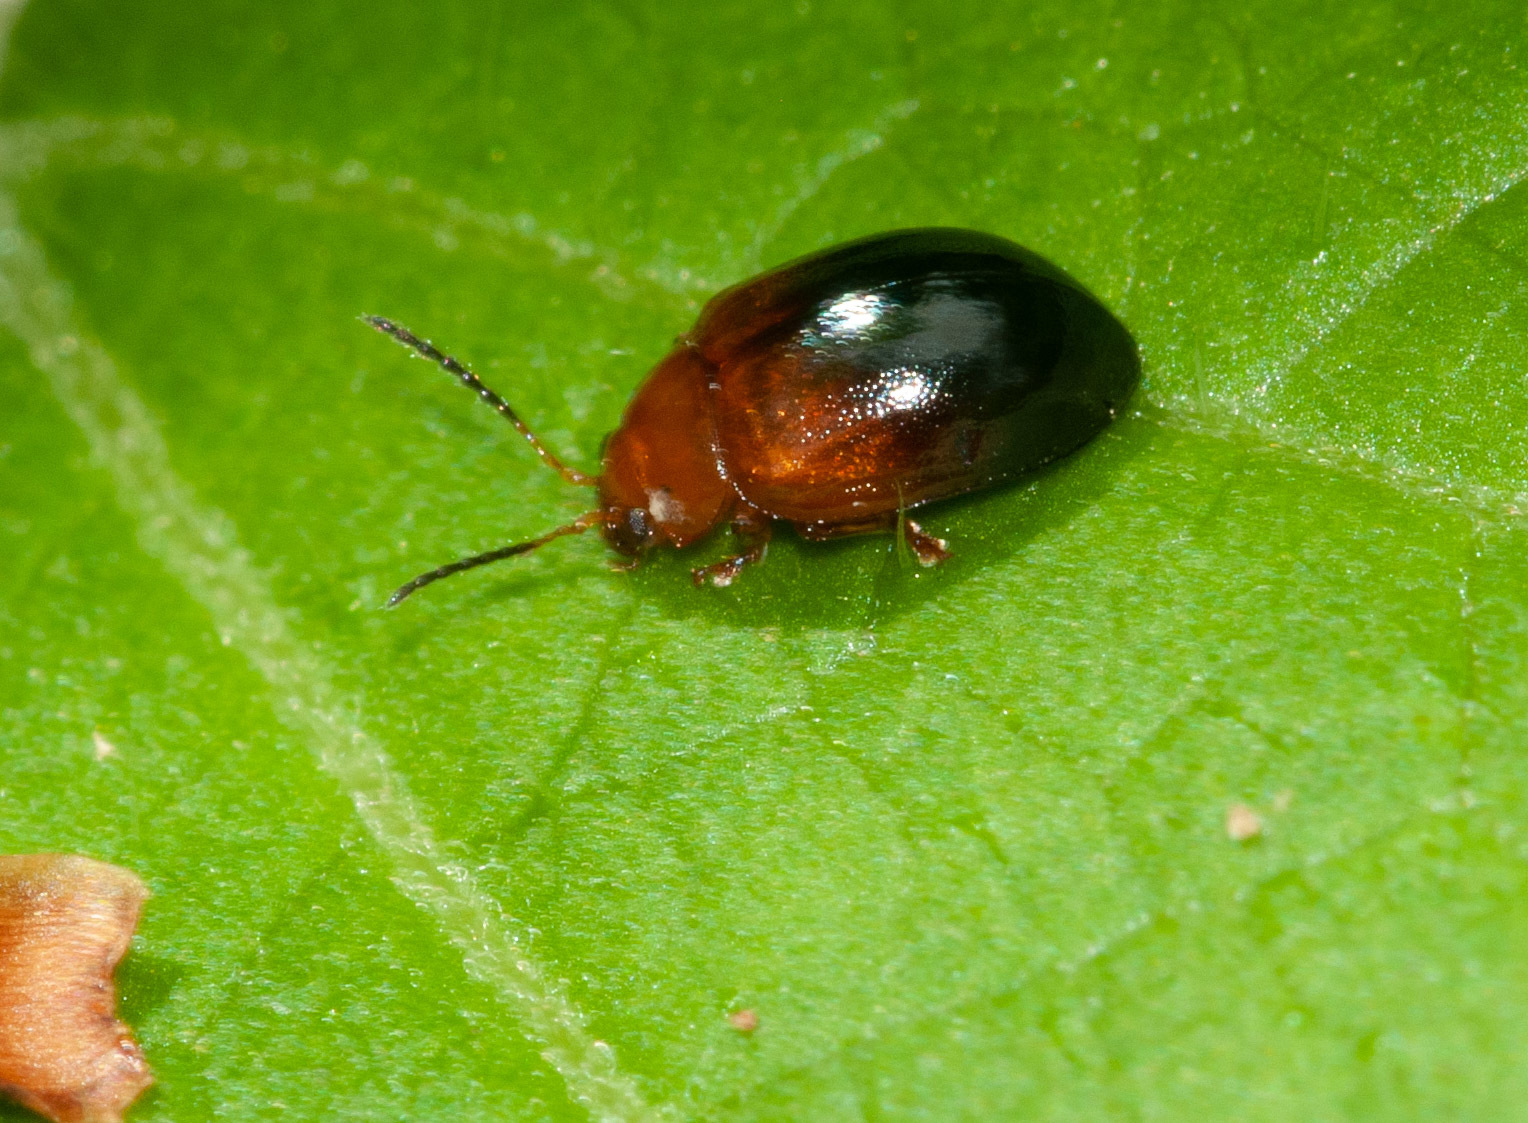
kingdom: Animalia
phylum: Arthropoda
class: Insecta
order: Coleoptera
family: Chrysomelidae
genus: Nisotra
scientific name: Nisotra
